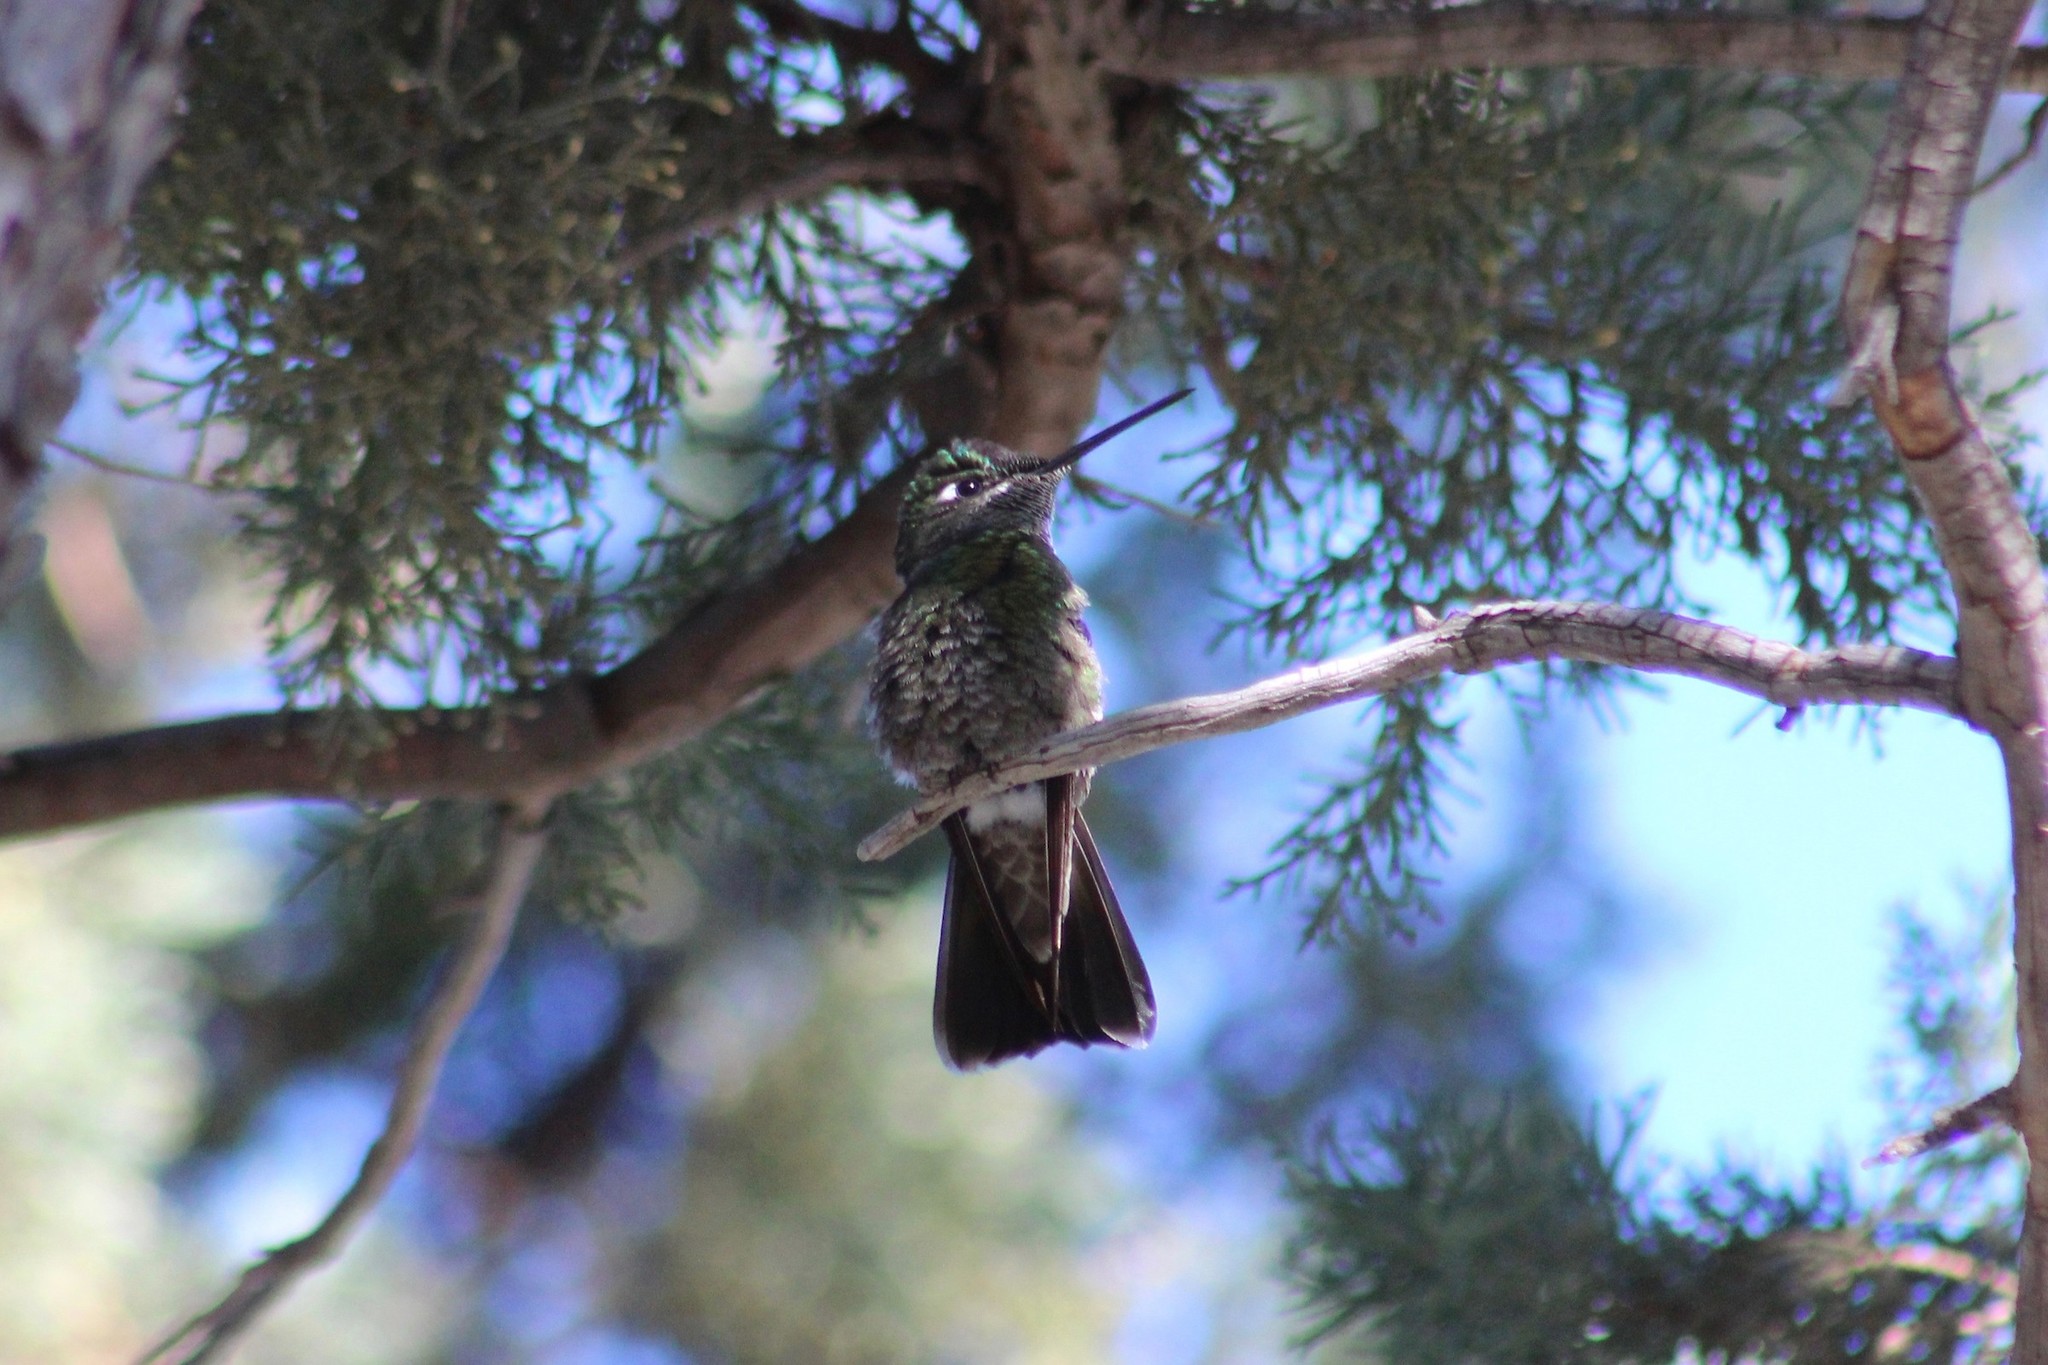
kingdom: Animalia
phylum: Chordata
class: Aves
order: Apodiformes
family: Trochilidae
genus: Eugenes
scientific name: Eugenes fulgens
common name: Magnificent hummingbird
